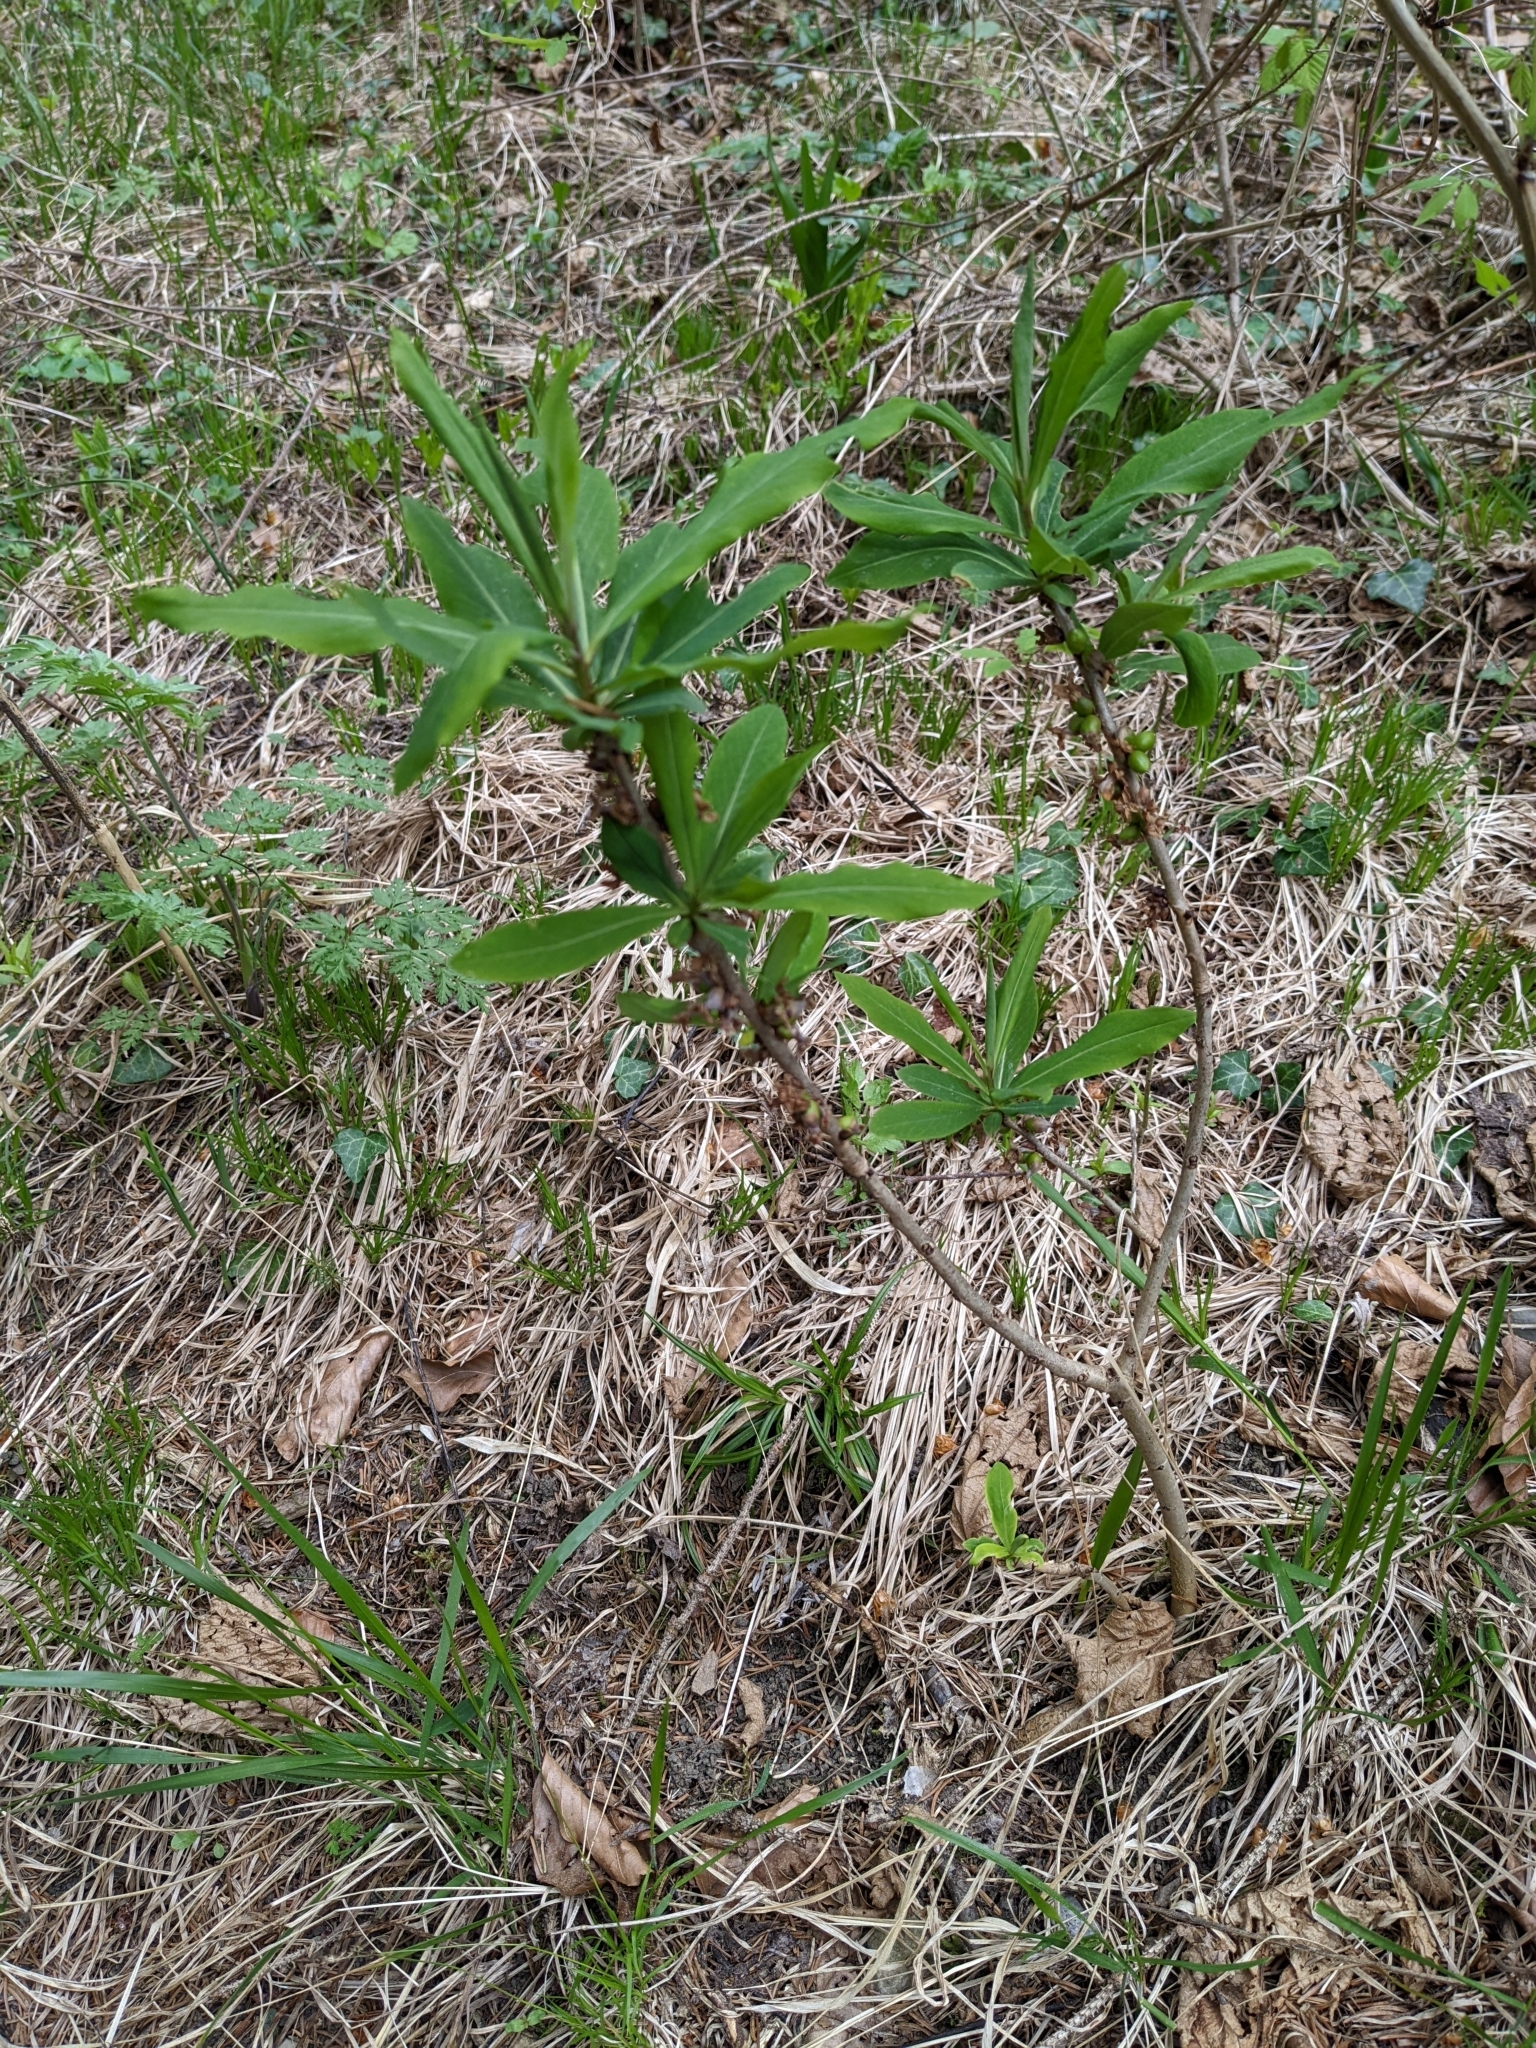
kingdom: Plantae
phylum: Tracheophyta
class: Magnoliopsida
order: Malvales
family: Thymelaeaceae
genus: Daphne
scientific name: Daphne mezereum
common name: Mezereon
